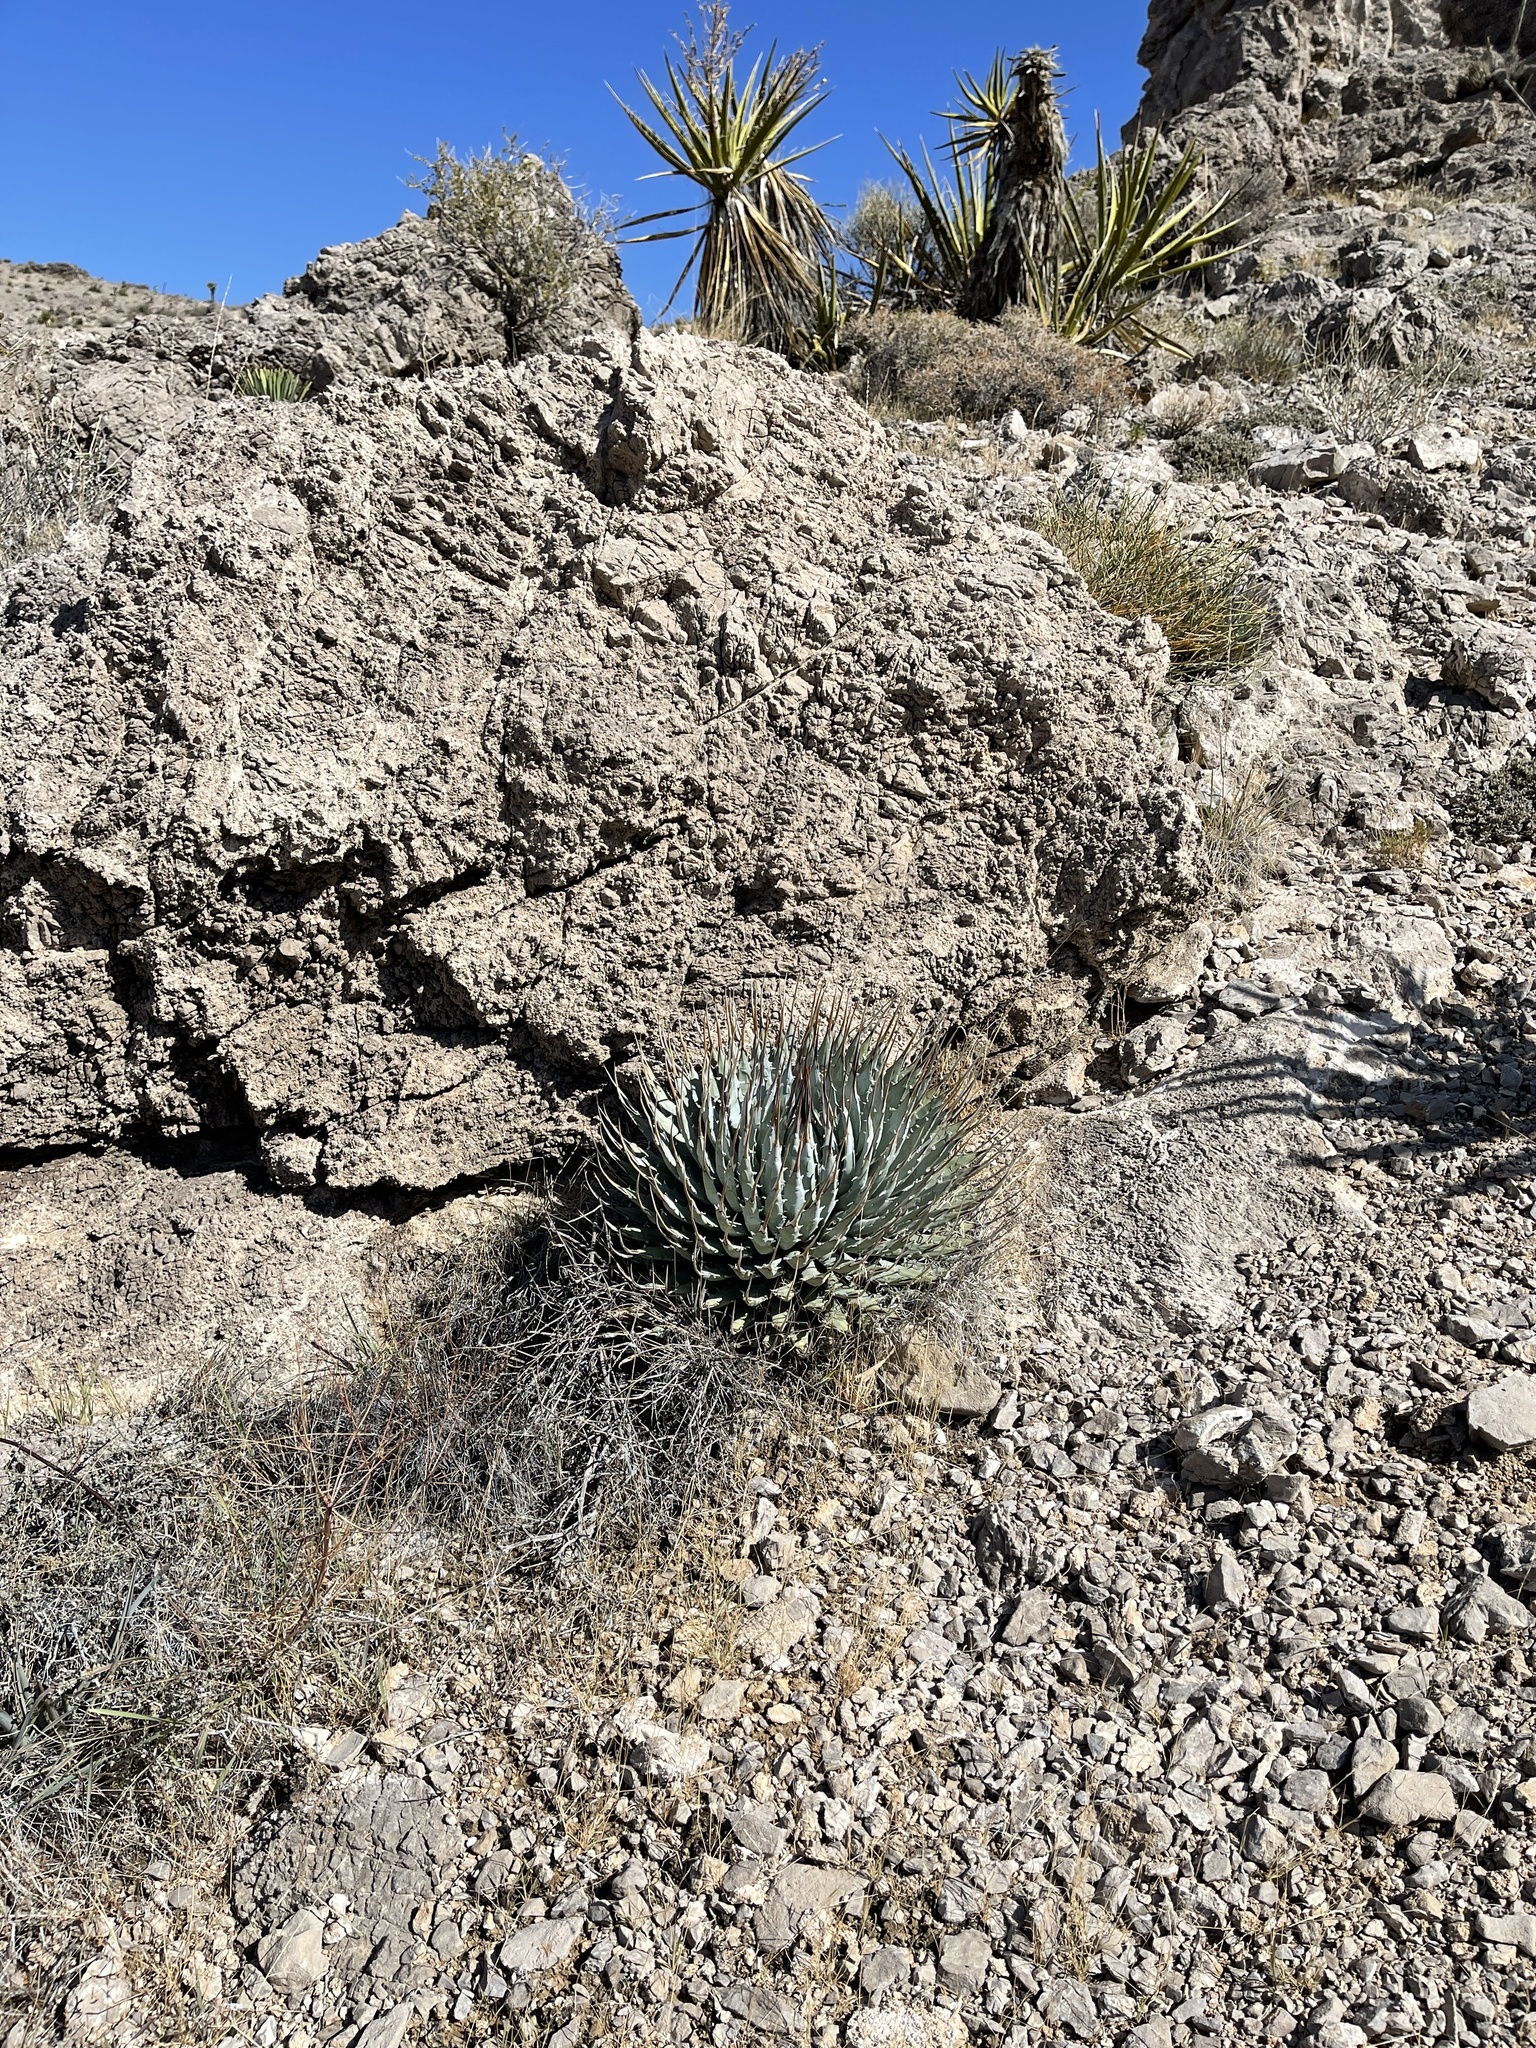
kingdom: Plantae
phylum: Tracheophyta
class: Liliopsida
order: Asparagales
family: Asparagaceae
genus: Agave
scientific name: Agave utahensis
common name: Utah agave
